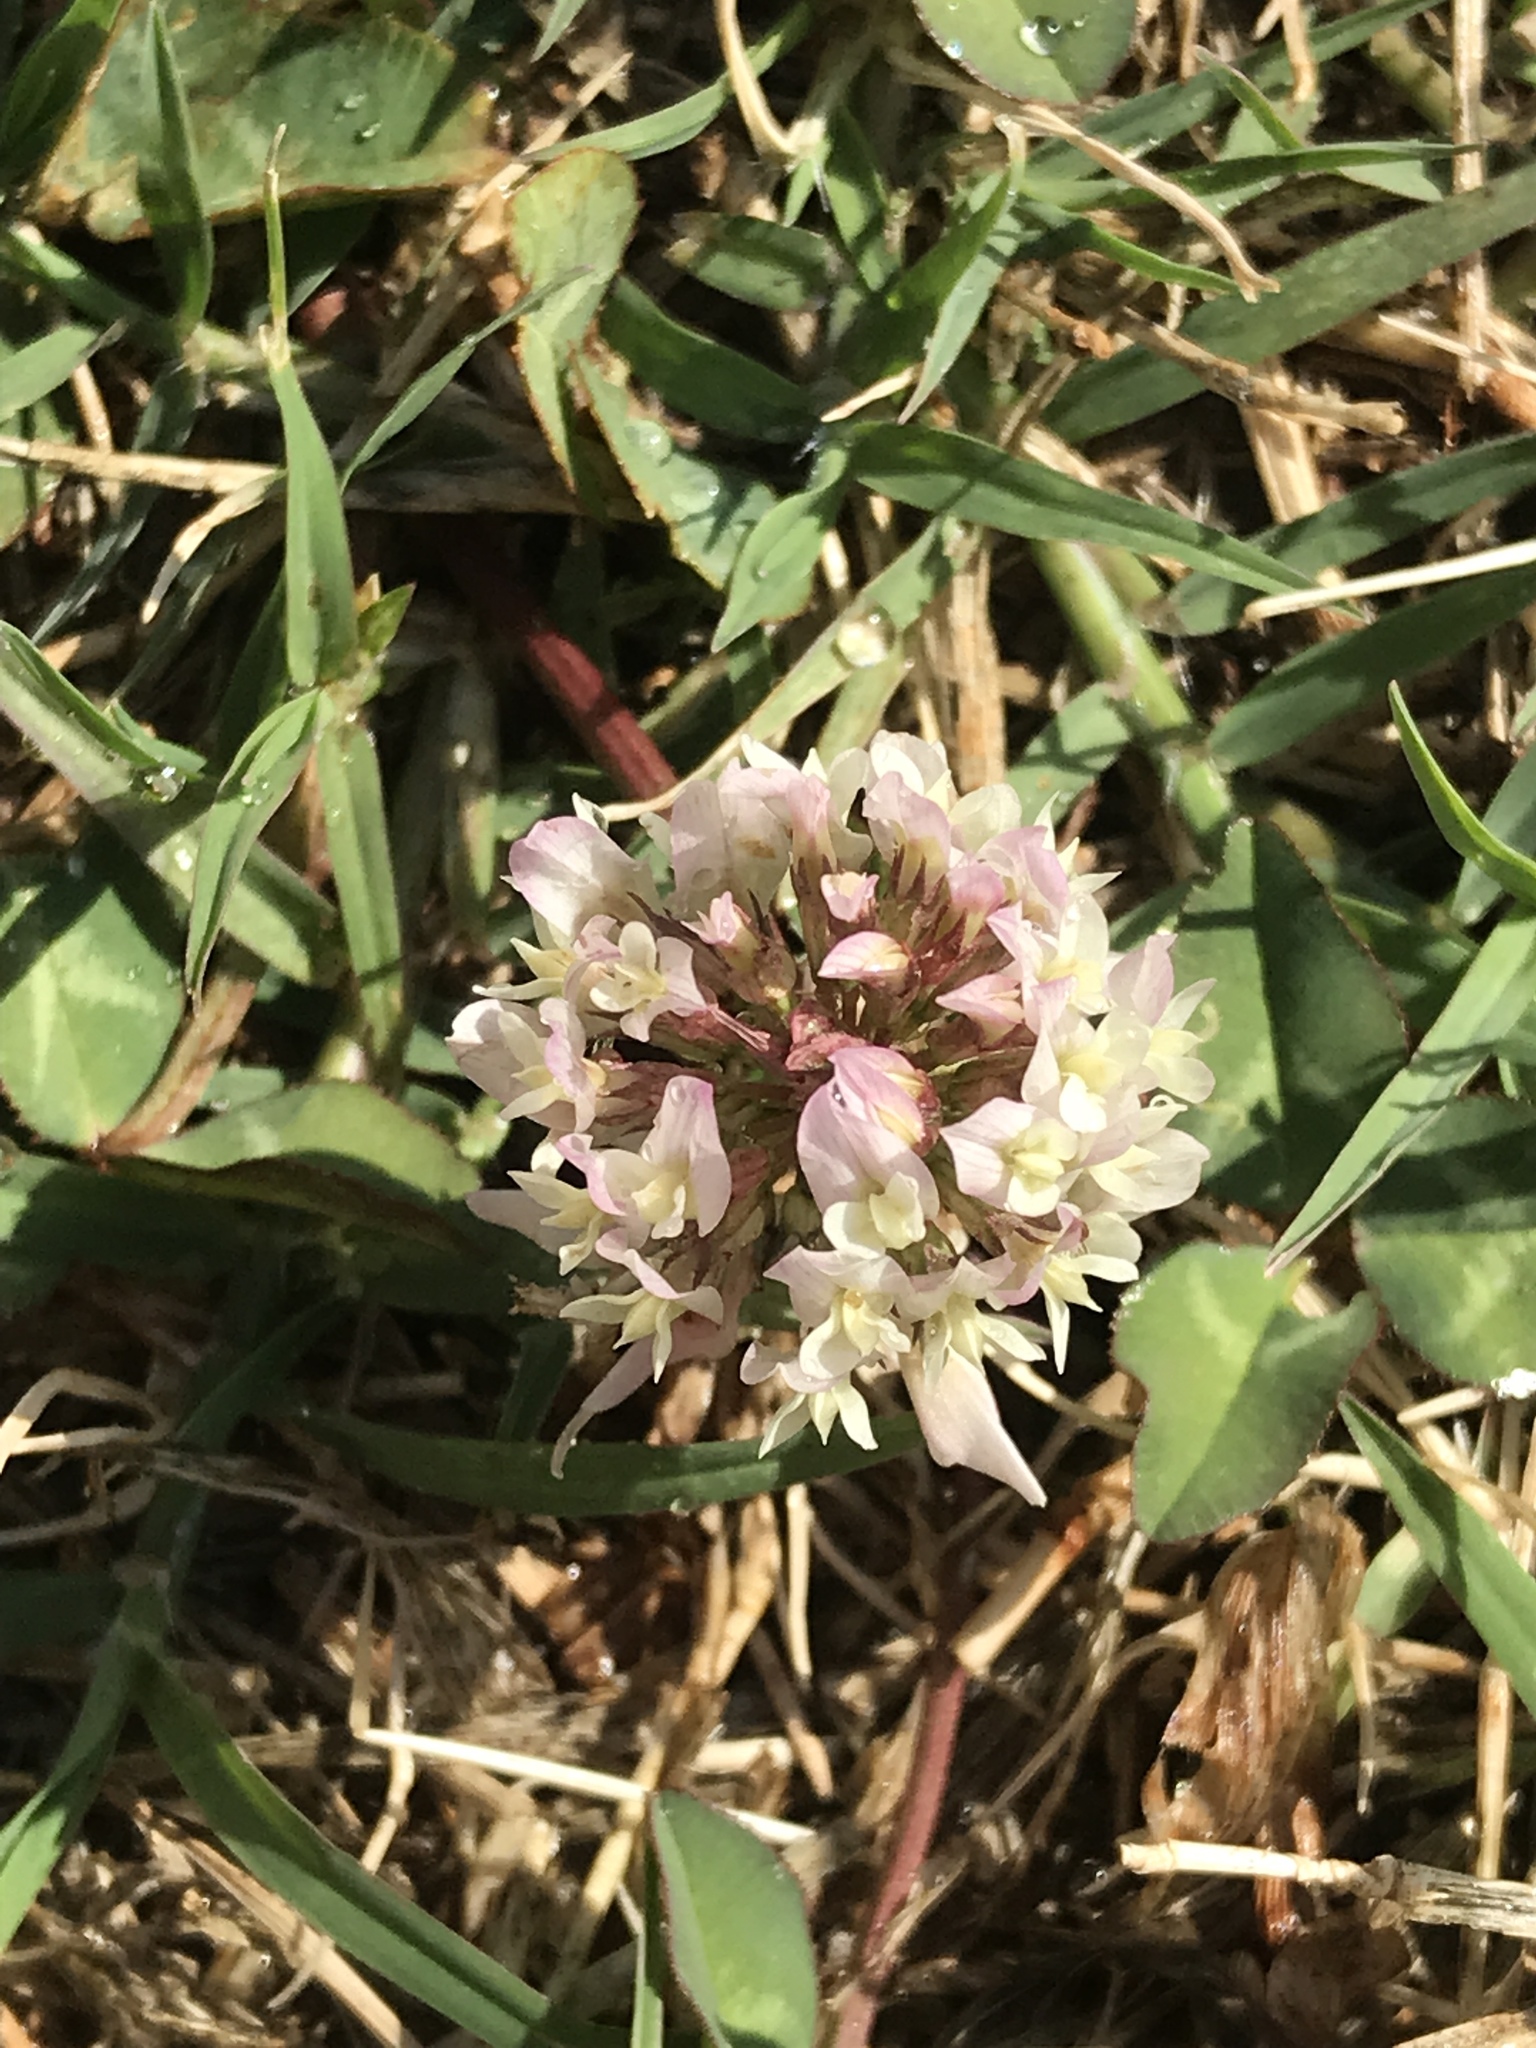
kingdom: Plantae
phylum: Tracheophyta
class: Magnoliopsida
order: Fabales
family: Fabaceae
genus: Trifolium
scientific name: Trifolium repens
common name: White clover
